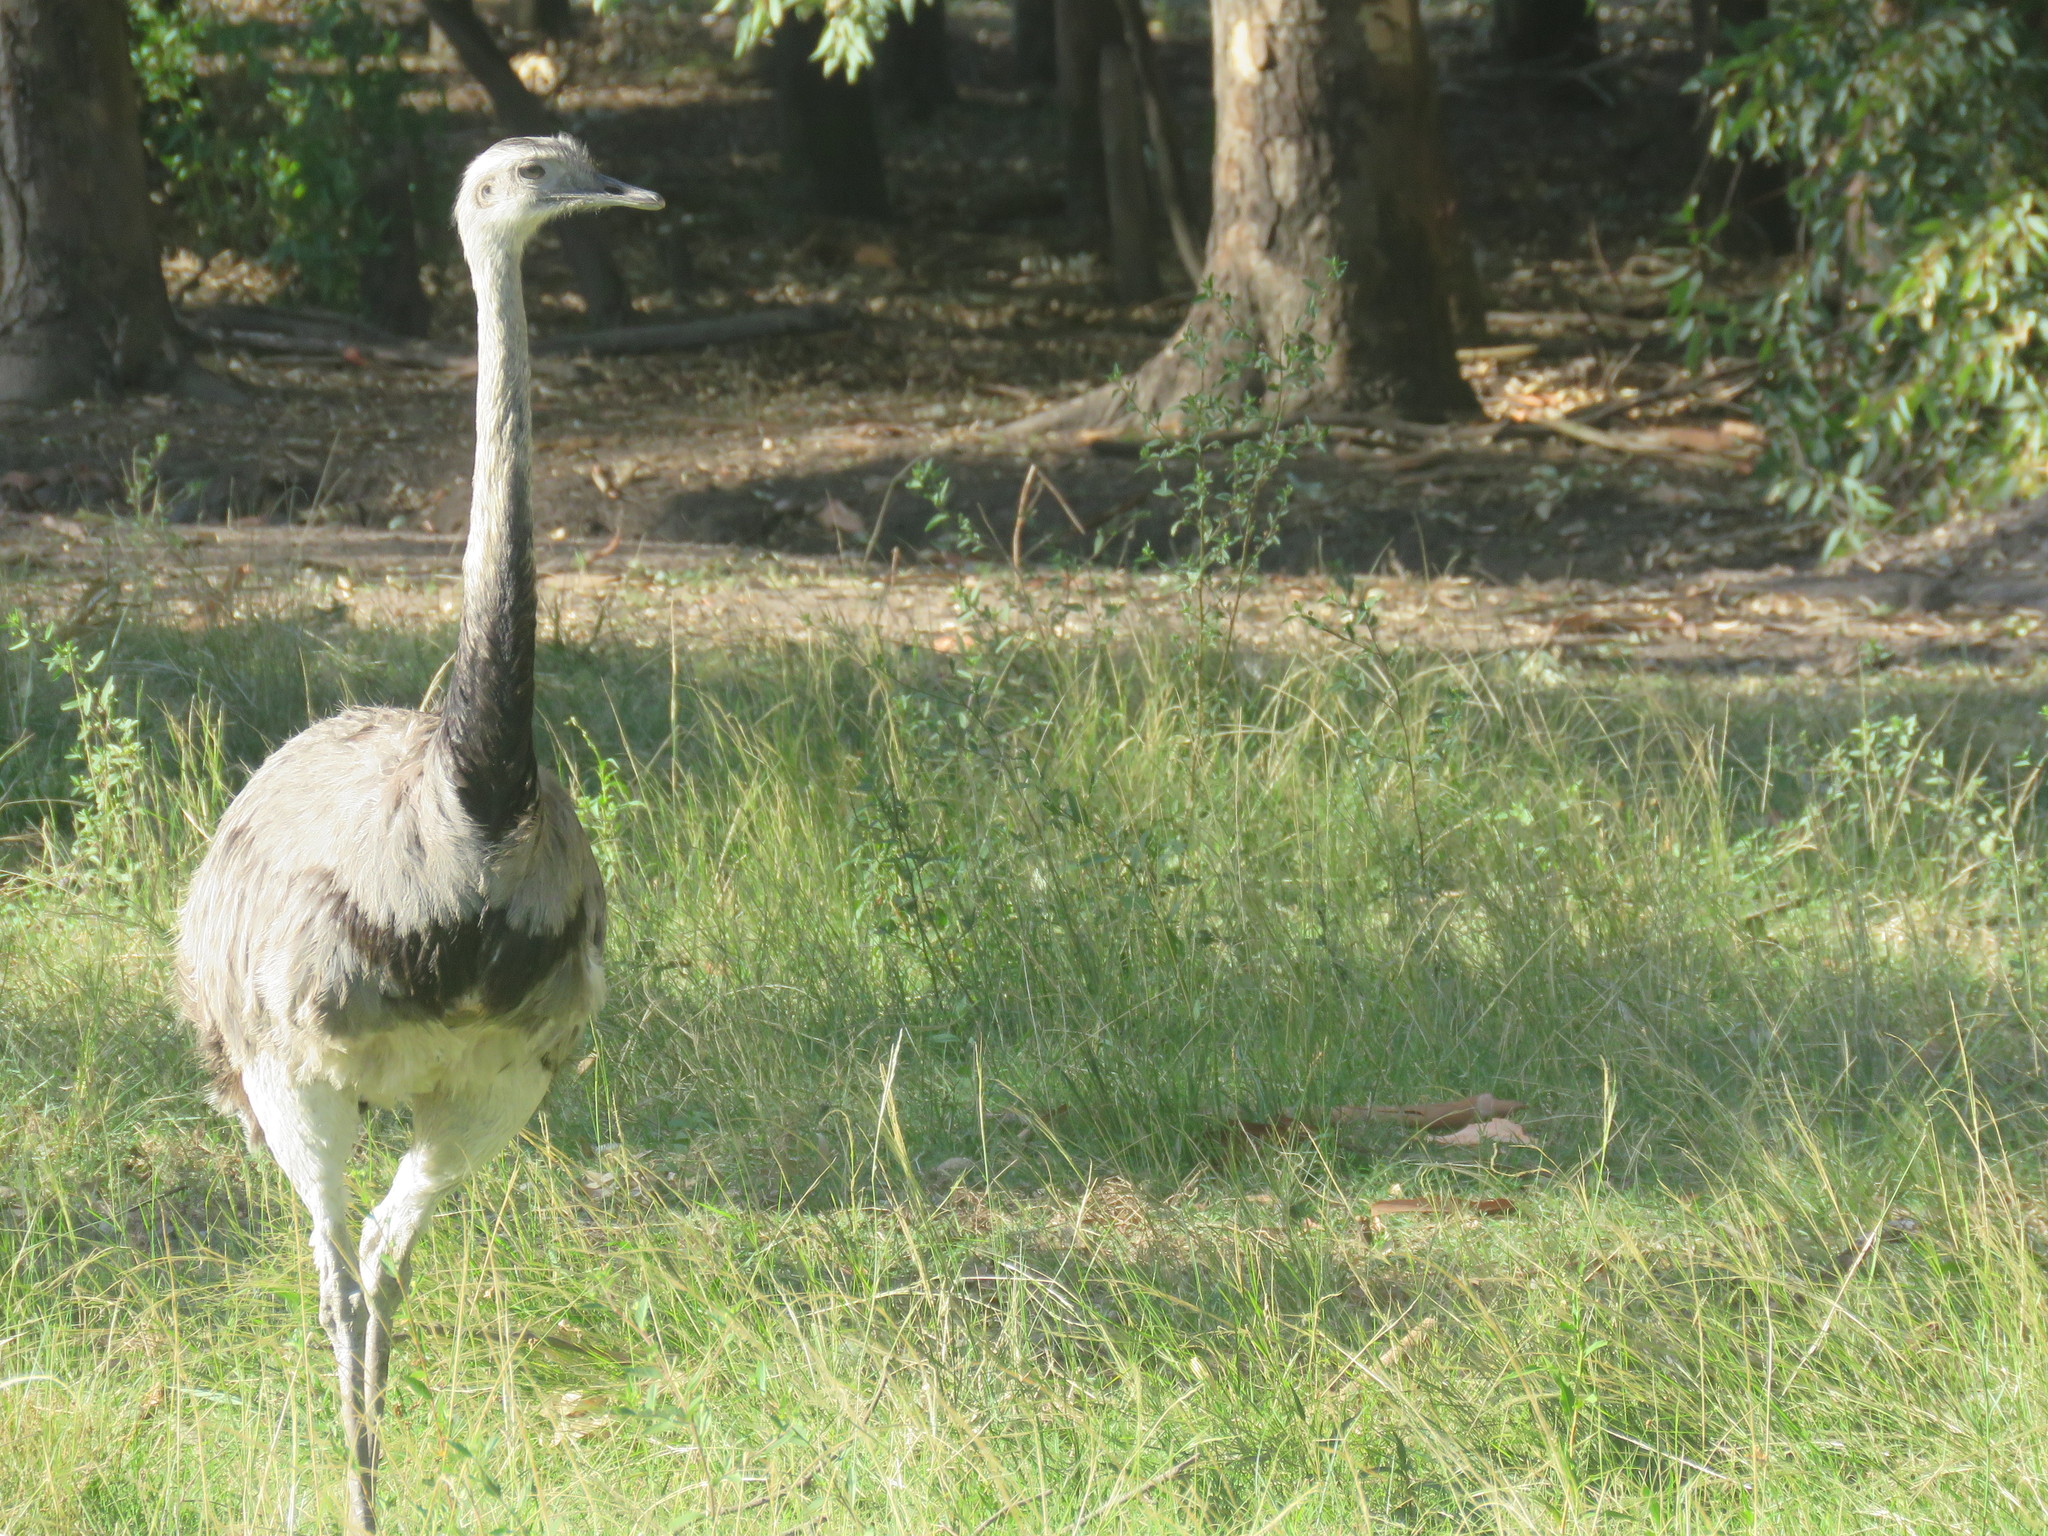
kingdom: Animalia
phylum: Chordata
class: Aves
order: Rheiformes
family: Rheidae
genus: Rhea
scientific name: Rhea americana
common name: Greater rhea
